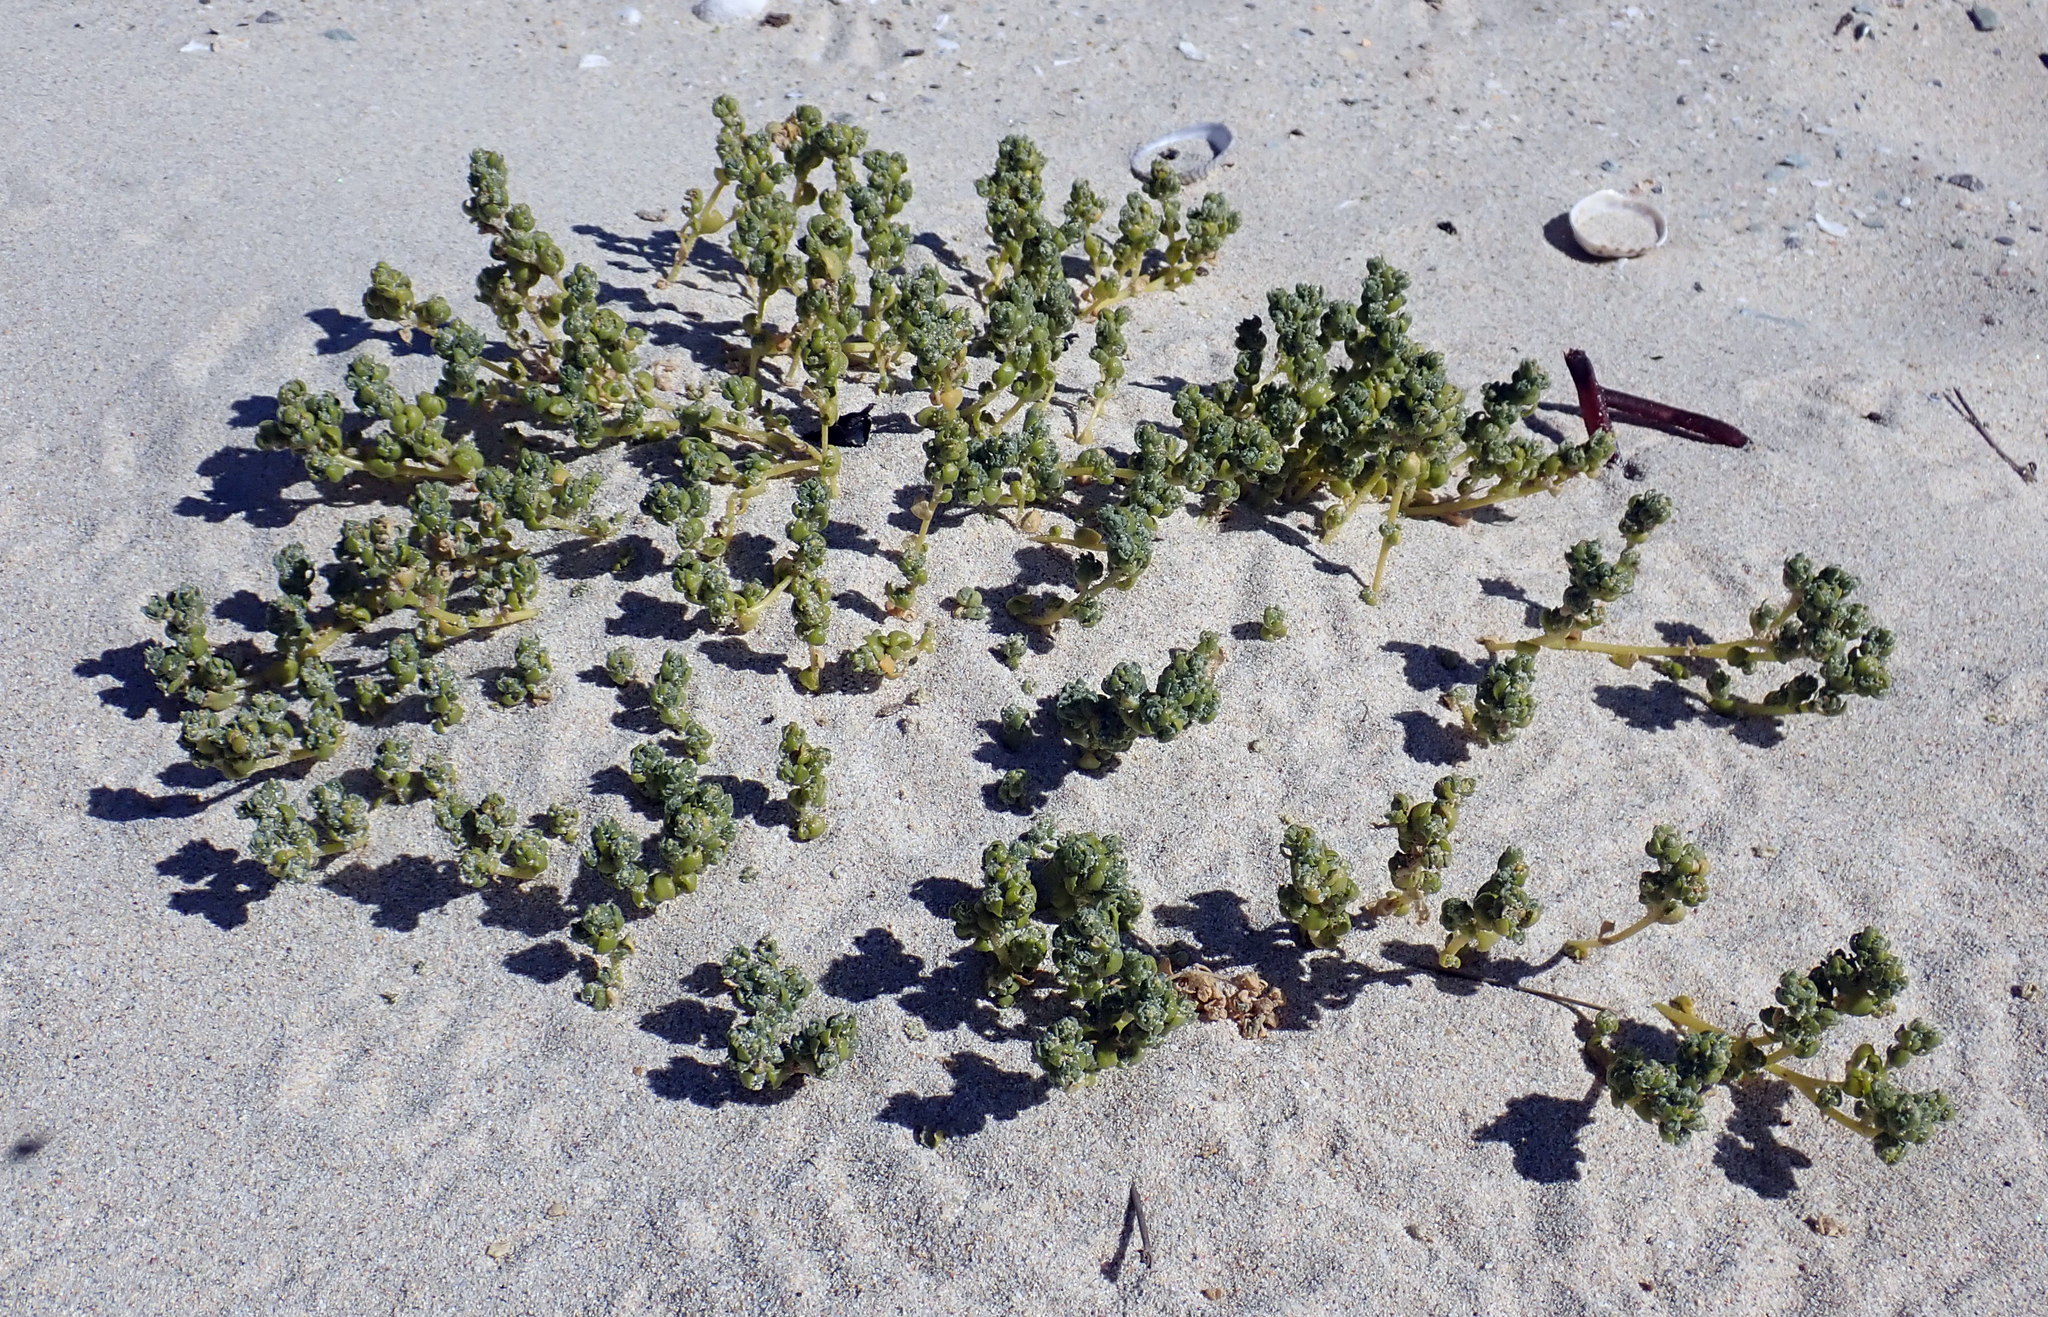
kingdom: Plantae
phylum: Tracheophyta
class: Magnoliopsida
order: Caryophyllales
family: Amaranthaceae
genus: Atriplex
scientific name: Atriplex billardierei
